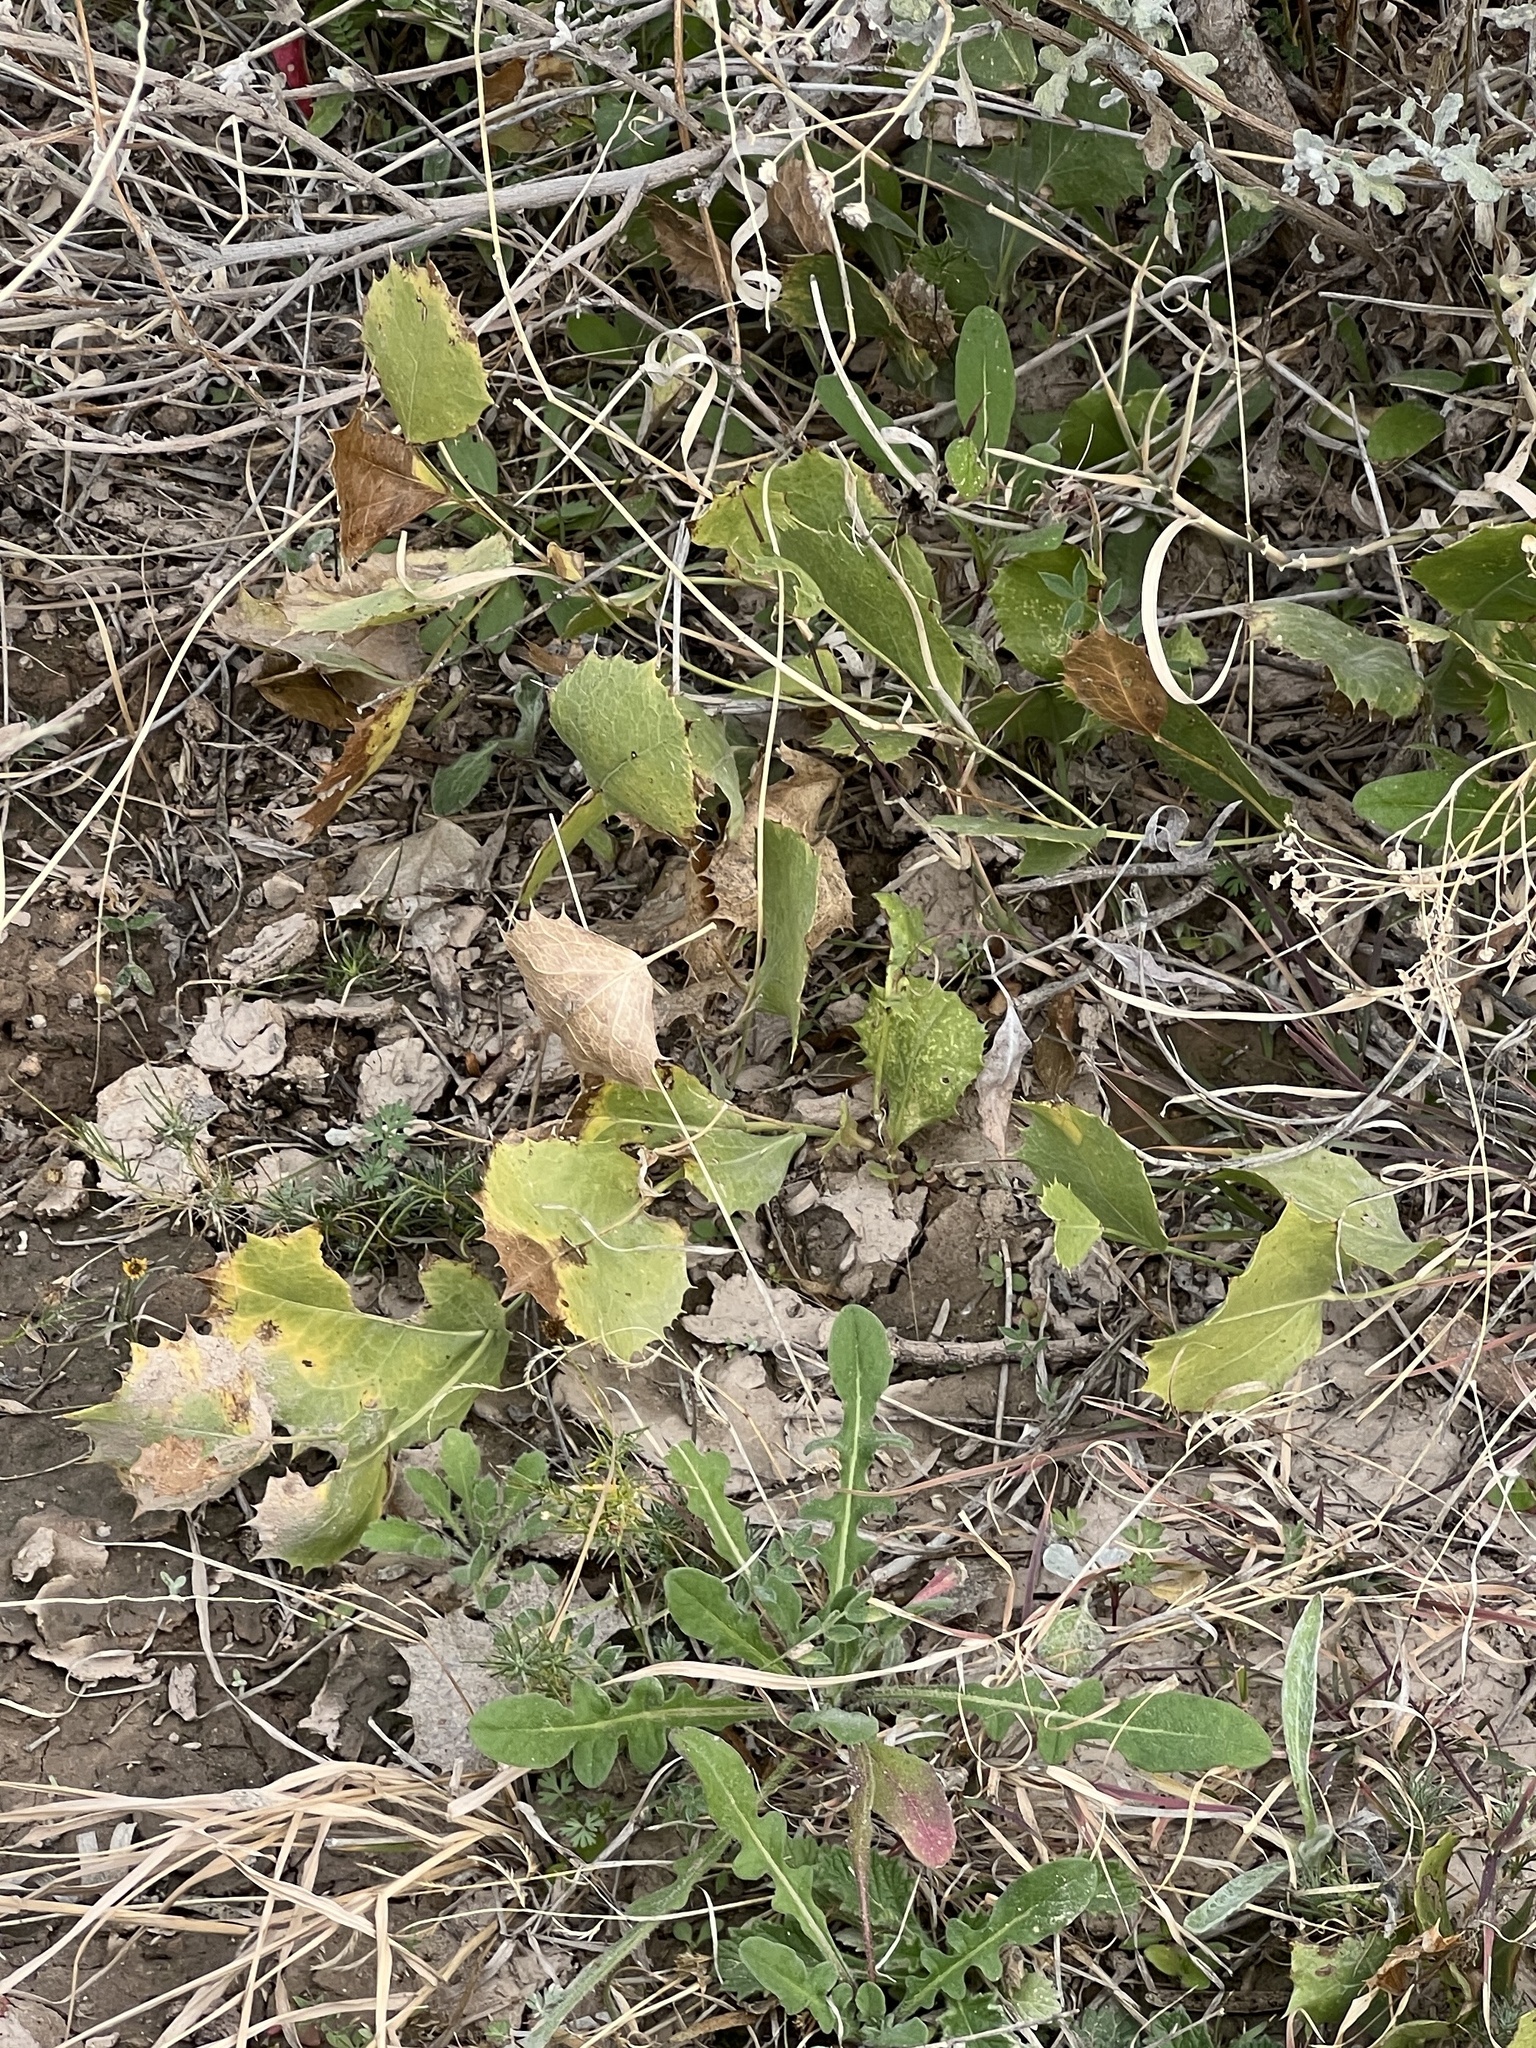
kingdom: Plantae
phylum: Tracheophyta
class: Magnoliopsida
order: Asterales
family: Asteraceae
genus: Acourtia
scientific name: Acourtia nana
